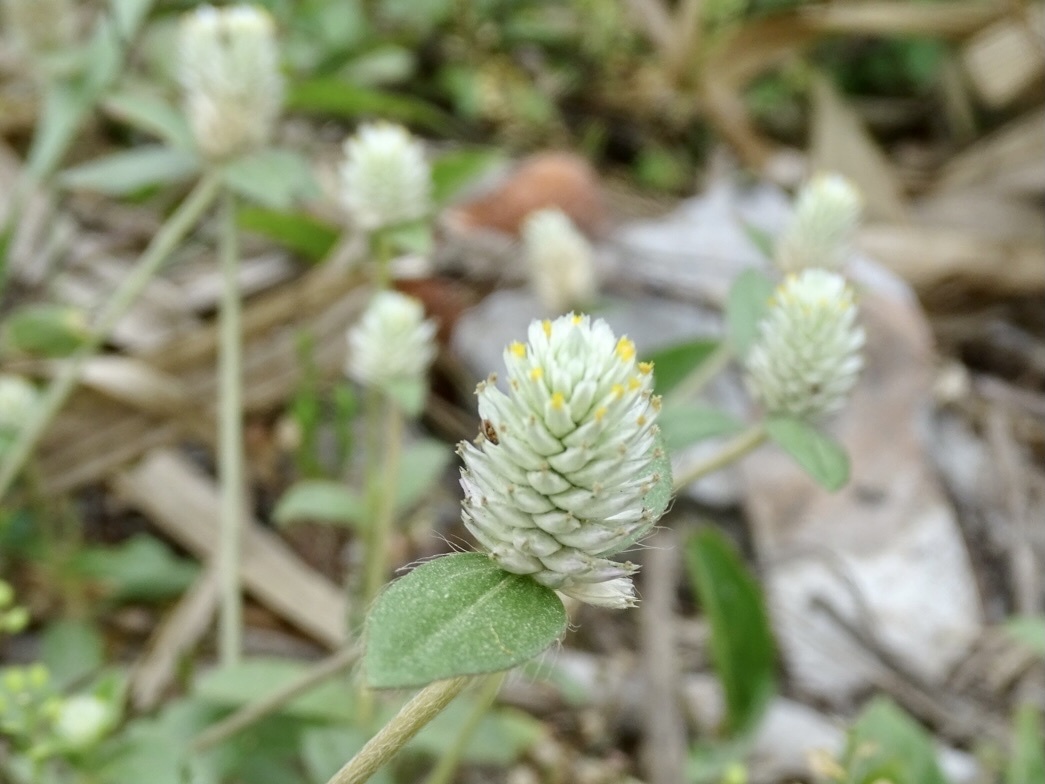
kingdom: Plantae
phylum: Tracheophyta
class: Magnoliopsida
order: Caryophyllales
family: Amaranthaceae
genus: Gomphrena
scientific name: Gomphrena celosioides
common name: Gomphrena-weed
